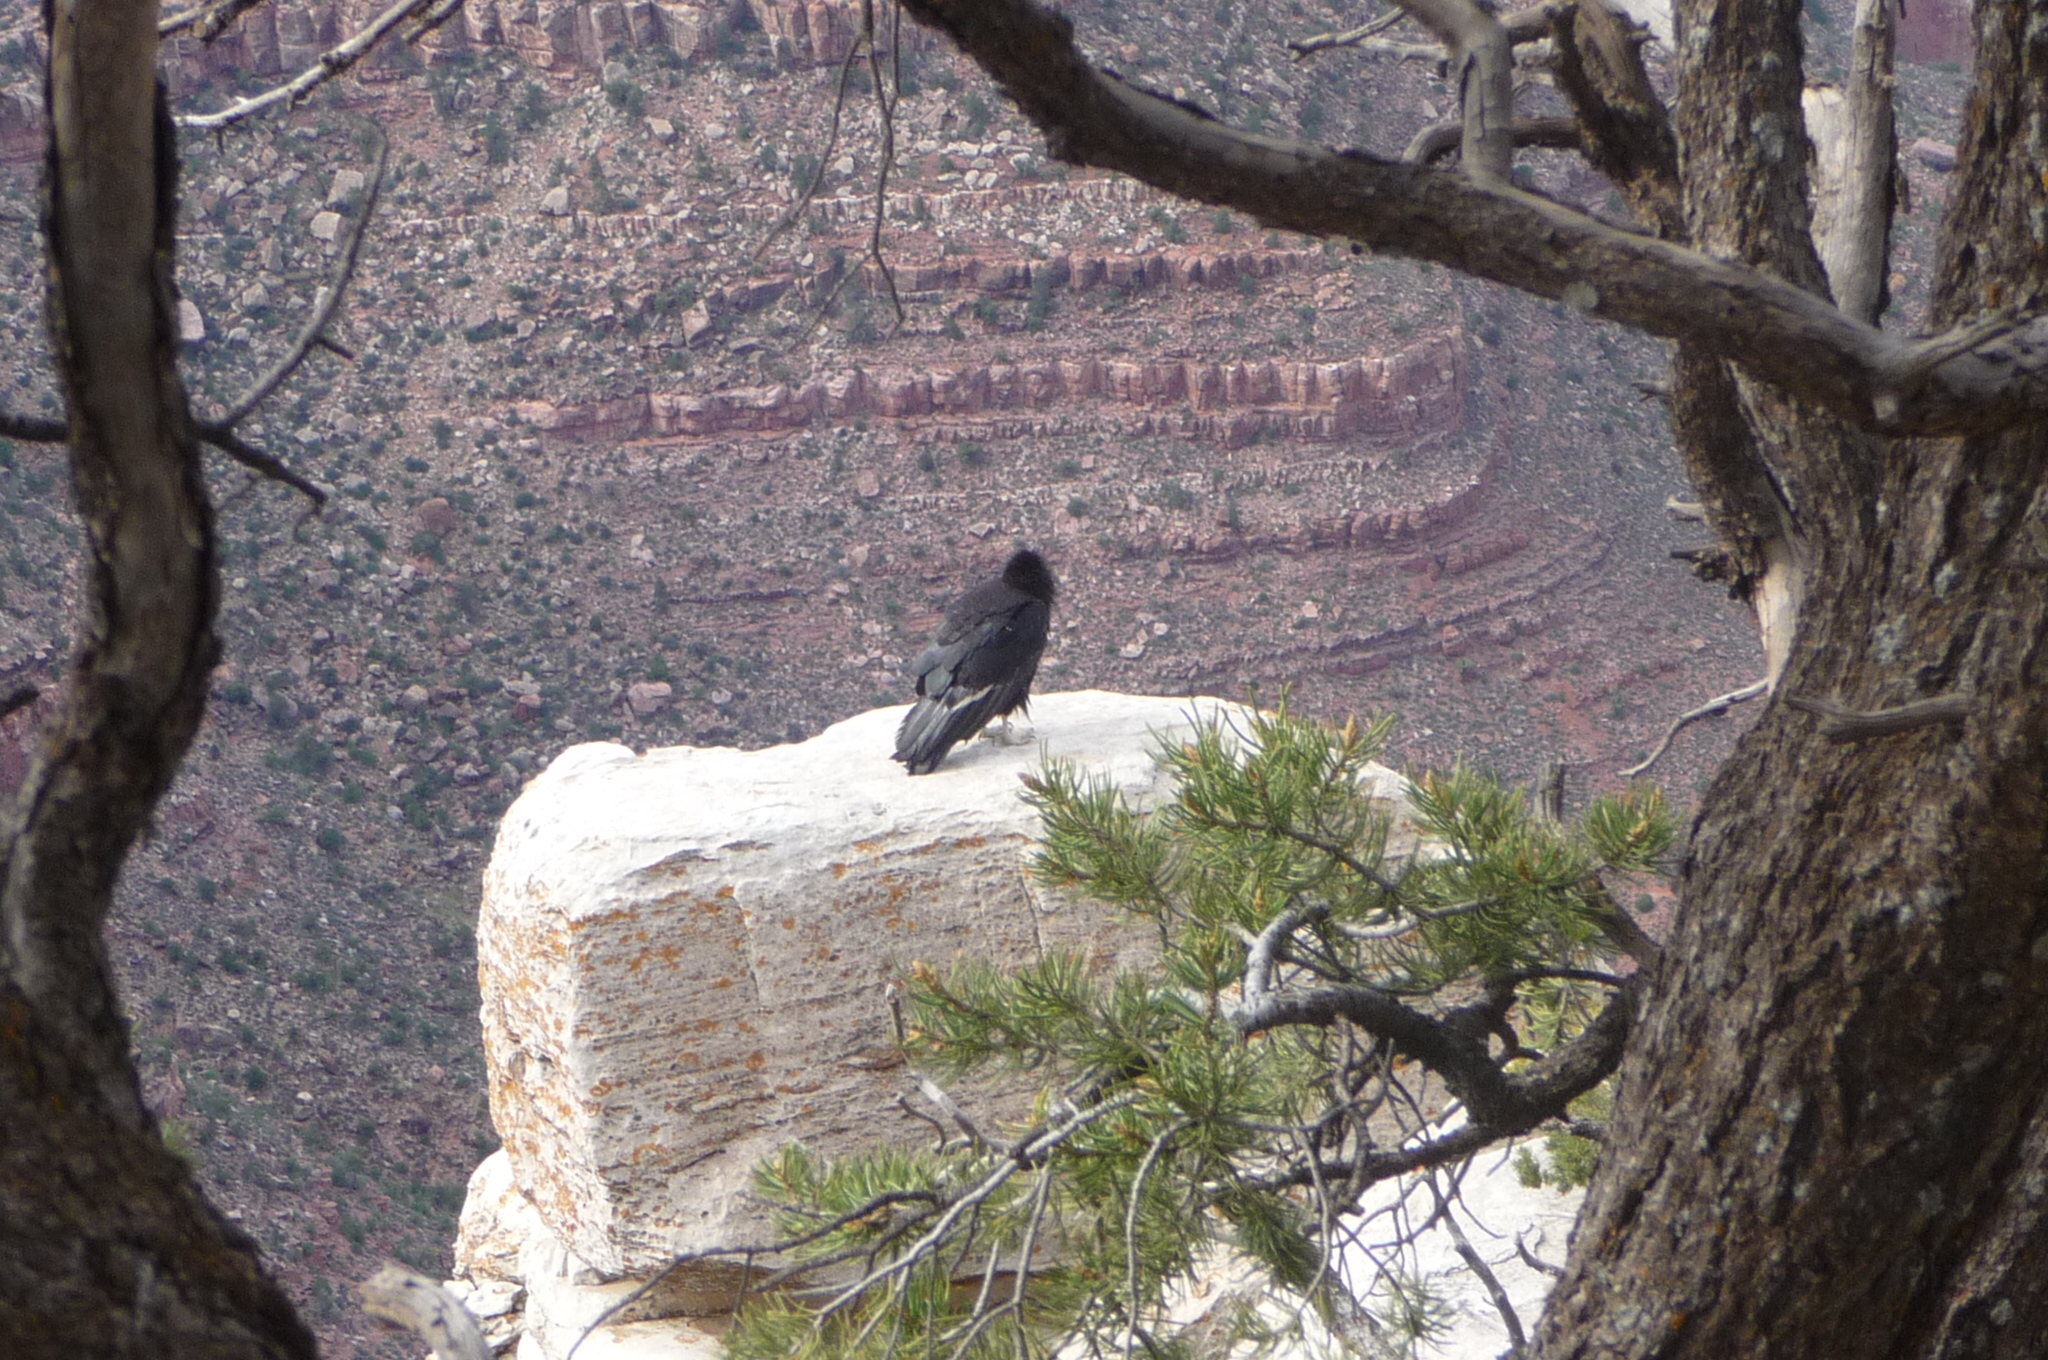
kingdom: Animalia
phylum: Chordata
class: Aves
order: Accipitriformes
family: Cathartidae
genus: Gymnogyps
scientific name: Gymnogyps californianus
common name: California condor
